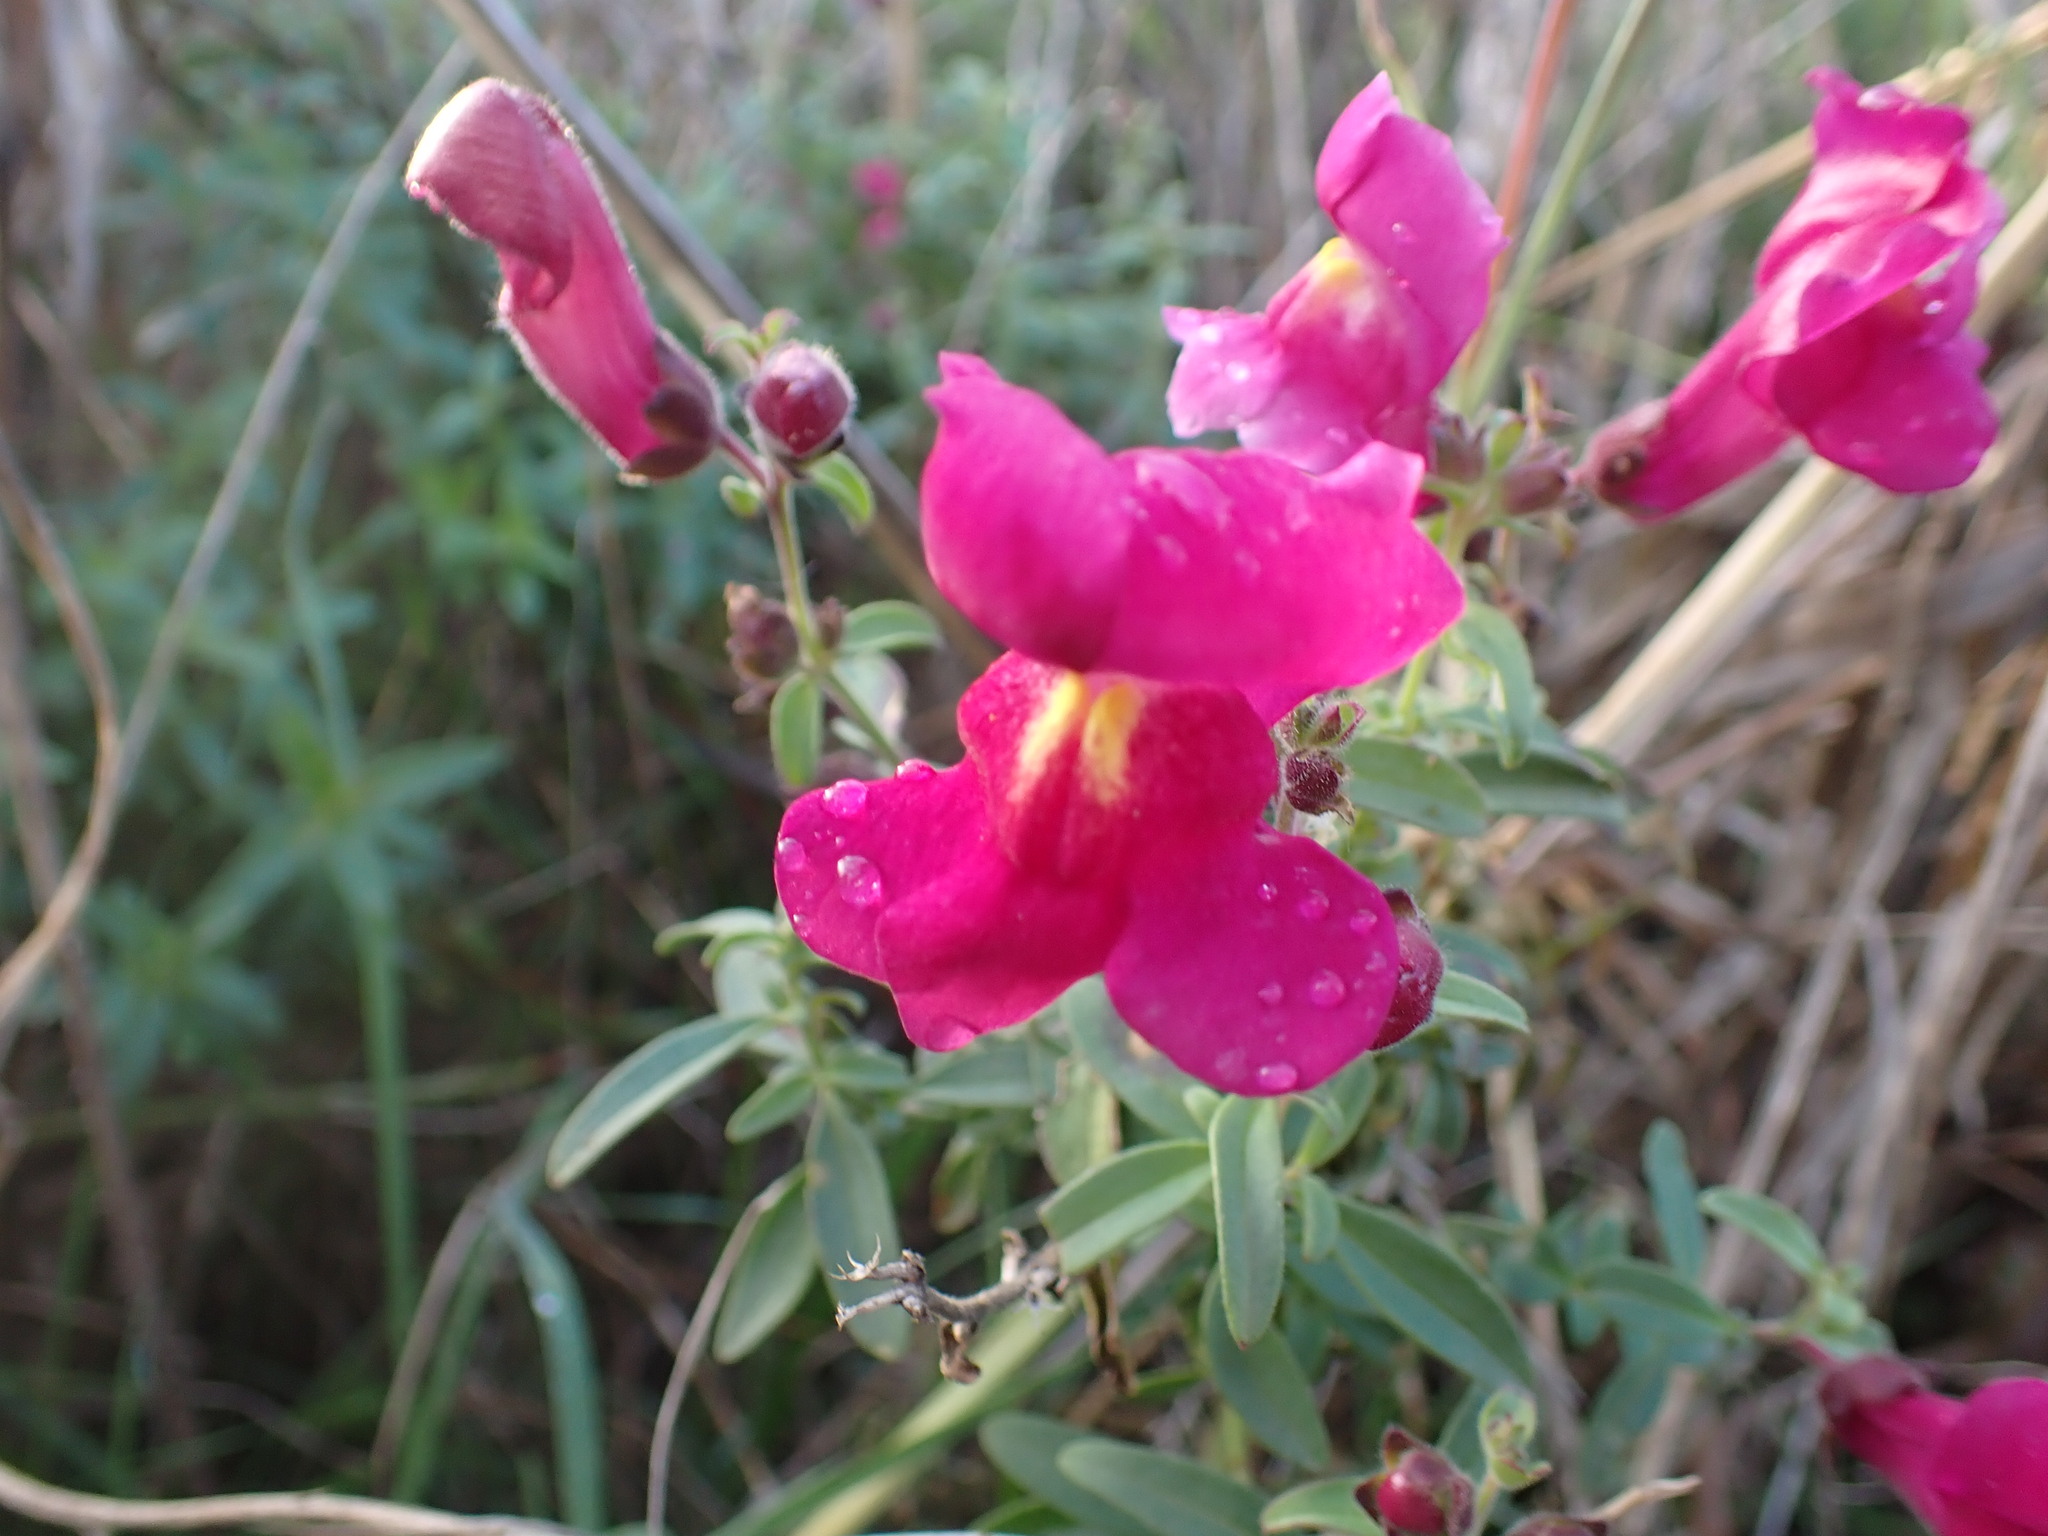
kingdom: Plantae
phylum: Tracheophyta
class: Magnoliopsida
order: Lamiales
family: Plantaginaceae
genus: Antirrhinum
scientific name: Antirrhinum majus
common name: Snapdragon
